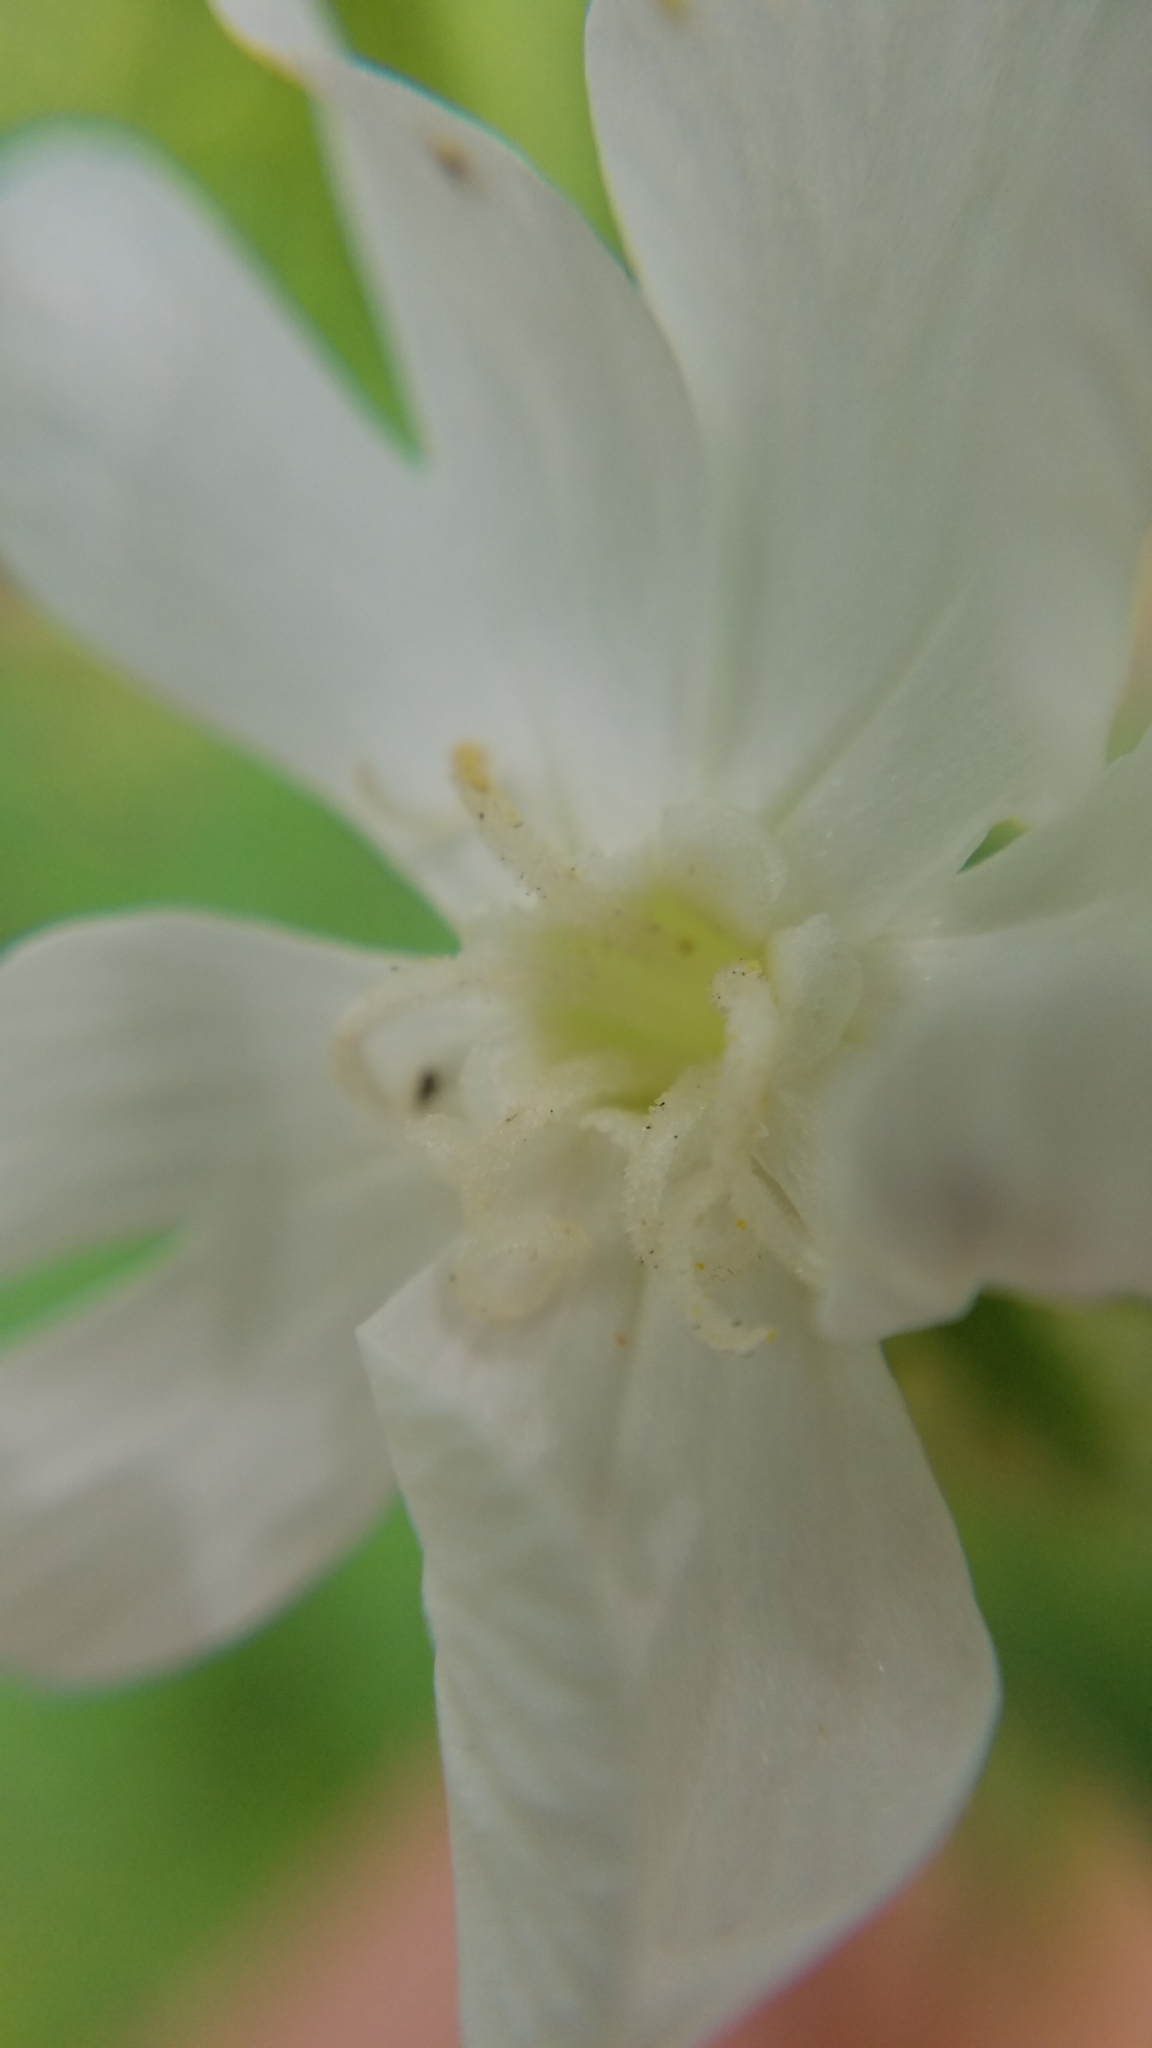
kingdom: Plantae
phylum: Tracheophyta
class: Magnoliopsida
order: Caryophyllales
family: Caryophyllaceae
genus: Silene
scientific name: Silene latifolia
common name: White campion
